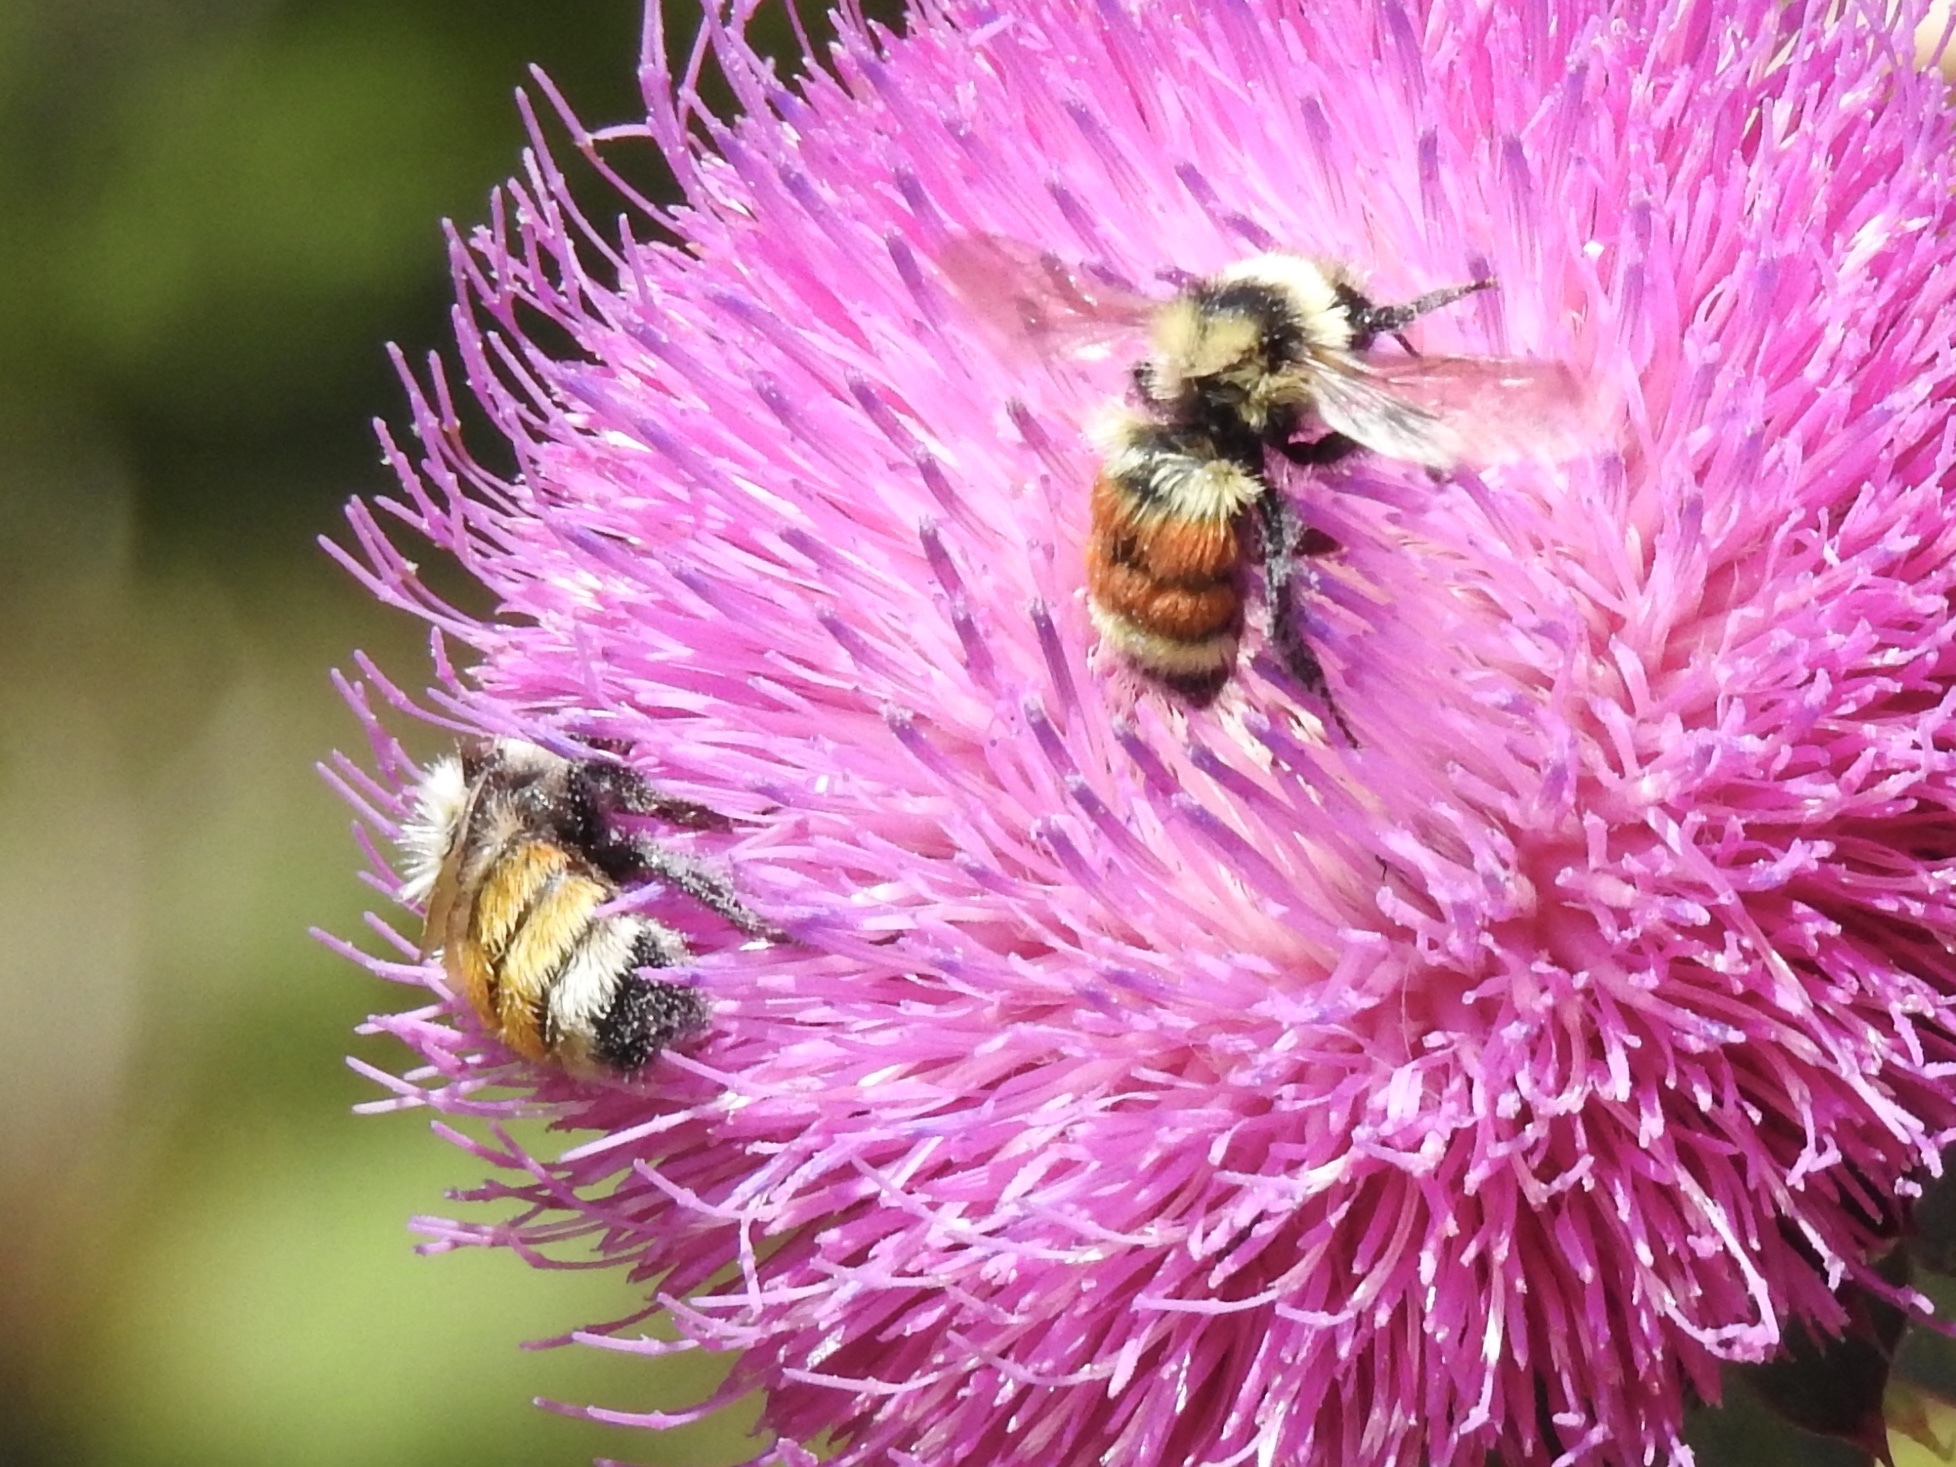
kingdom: Animalia
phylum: Arthropoda
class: Insecta
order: Hymenoptera
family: Apidae
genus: Bombus
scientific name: Bombus huntii
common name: Hunt bumble bee
